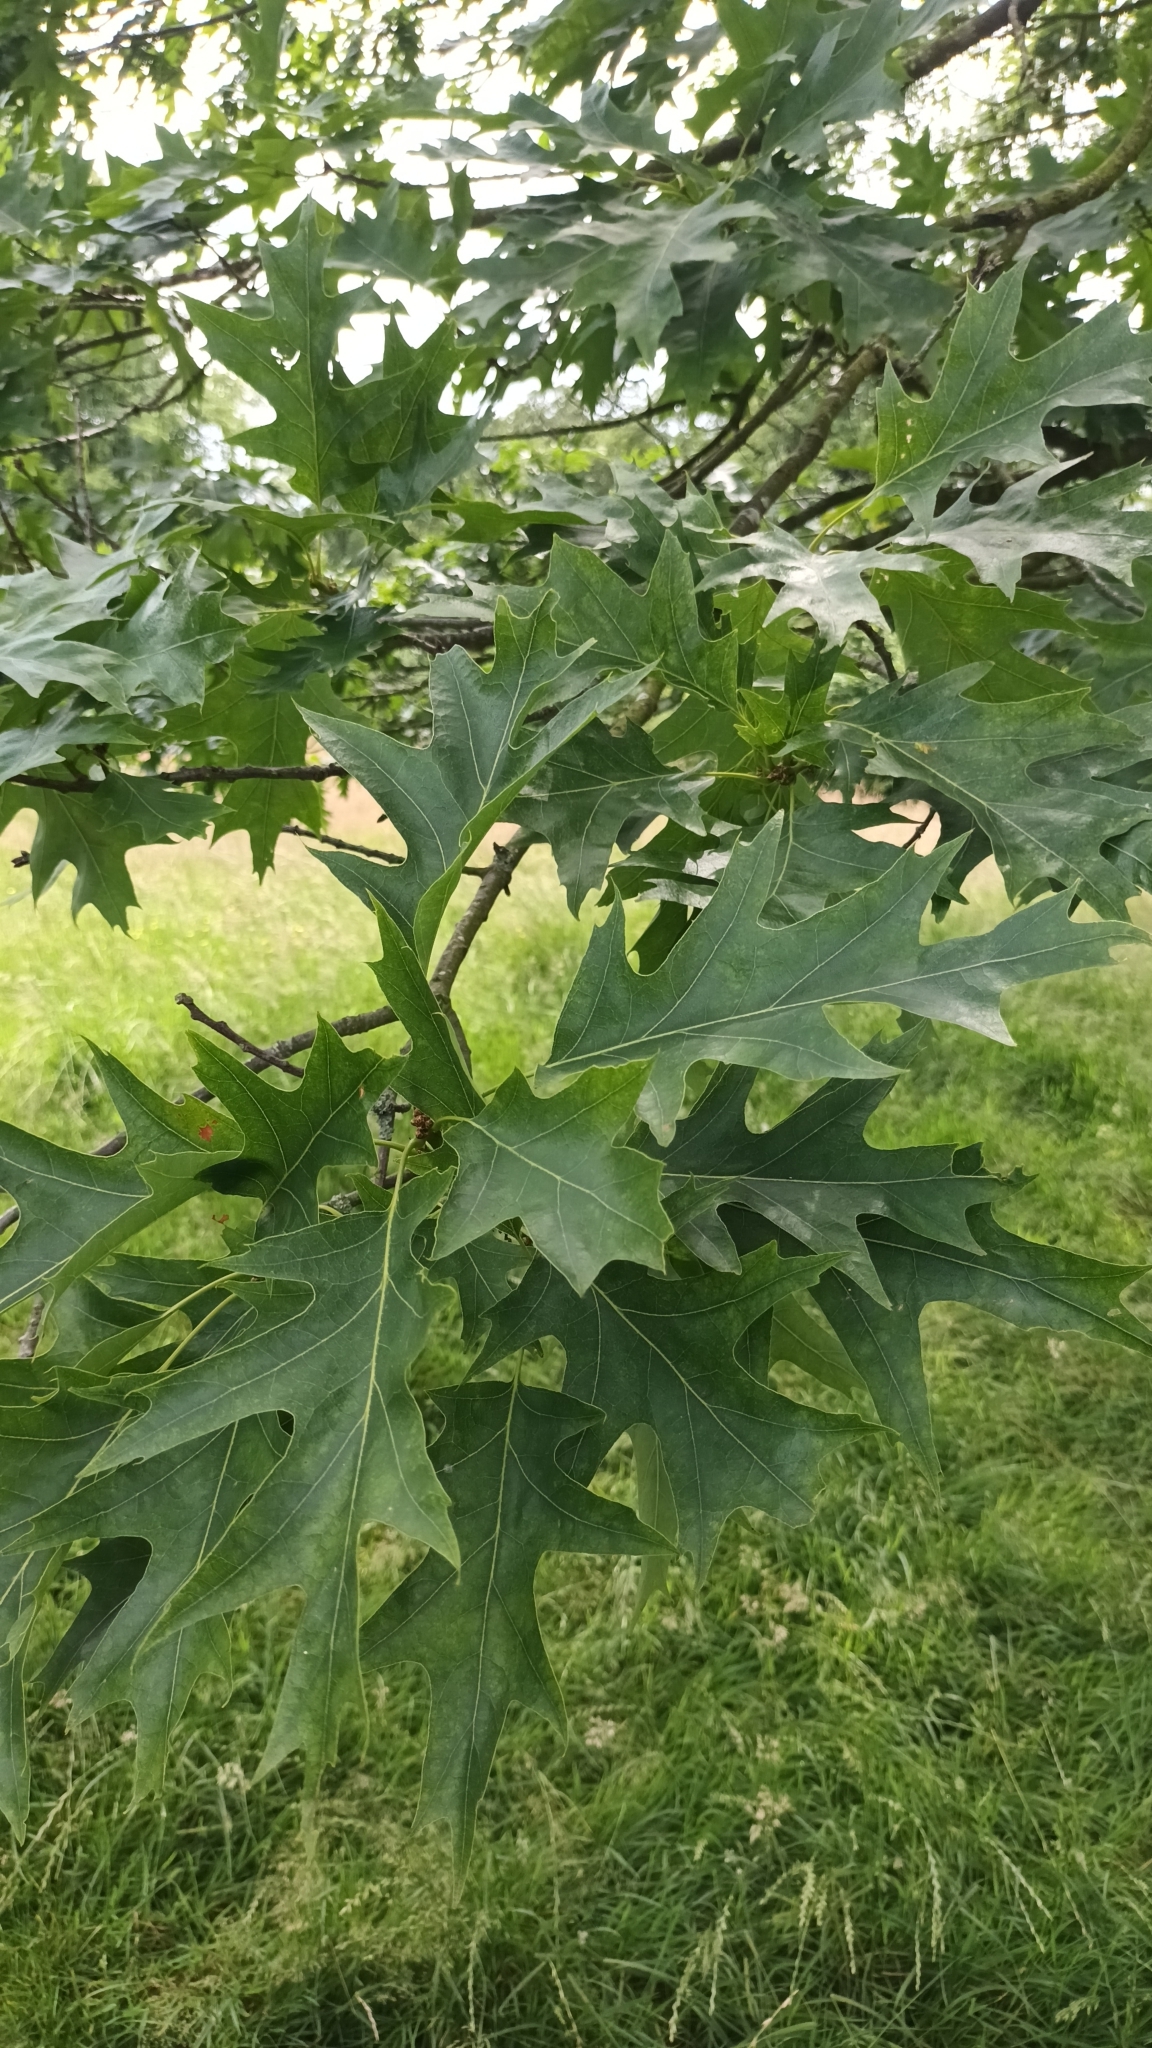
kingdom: Plantae
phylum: Tracheophyta
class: Magnoliopsida
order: Fagales
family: Fagaceae
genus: Quercus
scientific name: Quercus rubra
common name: Red oak
